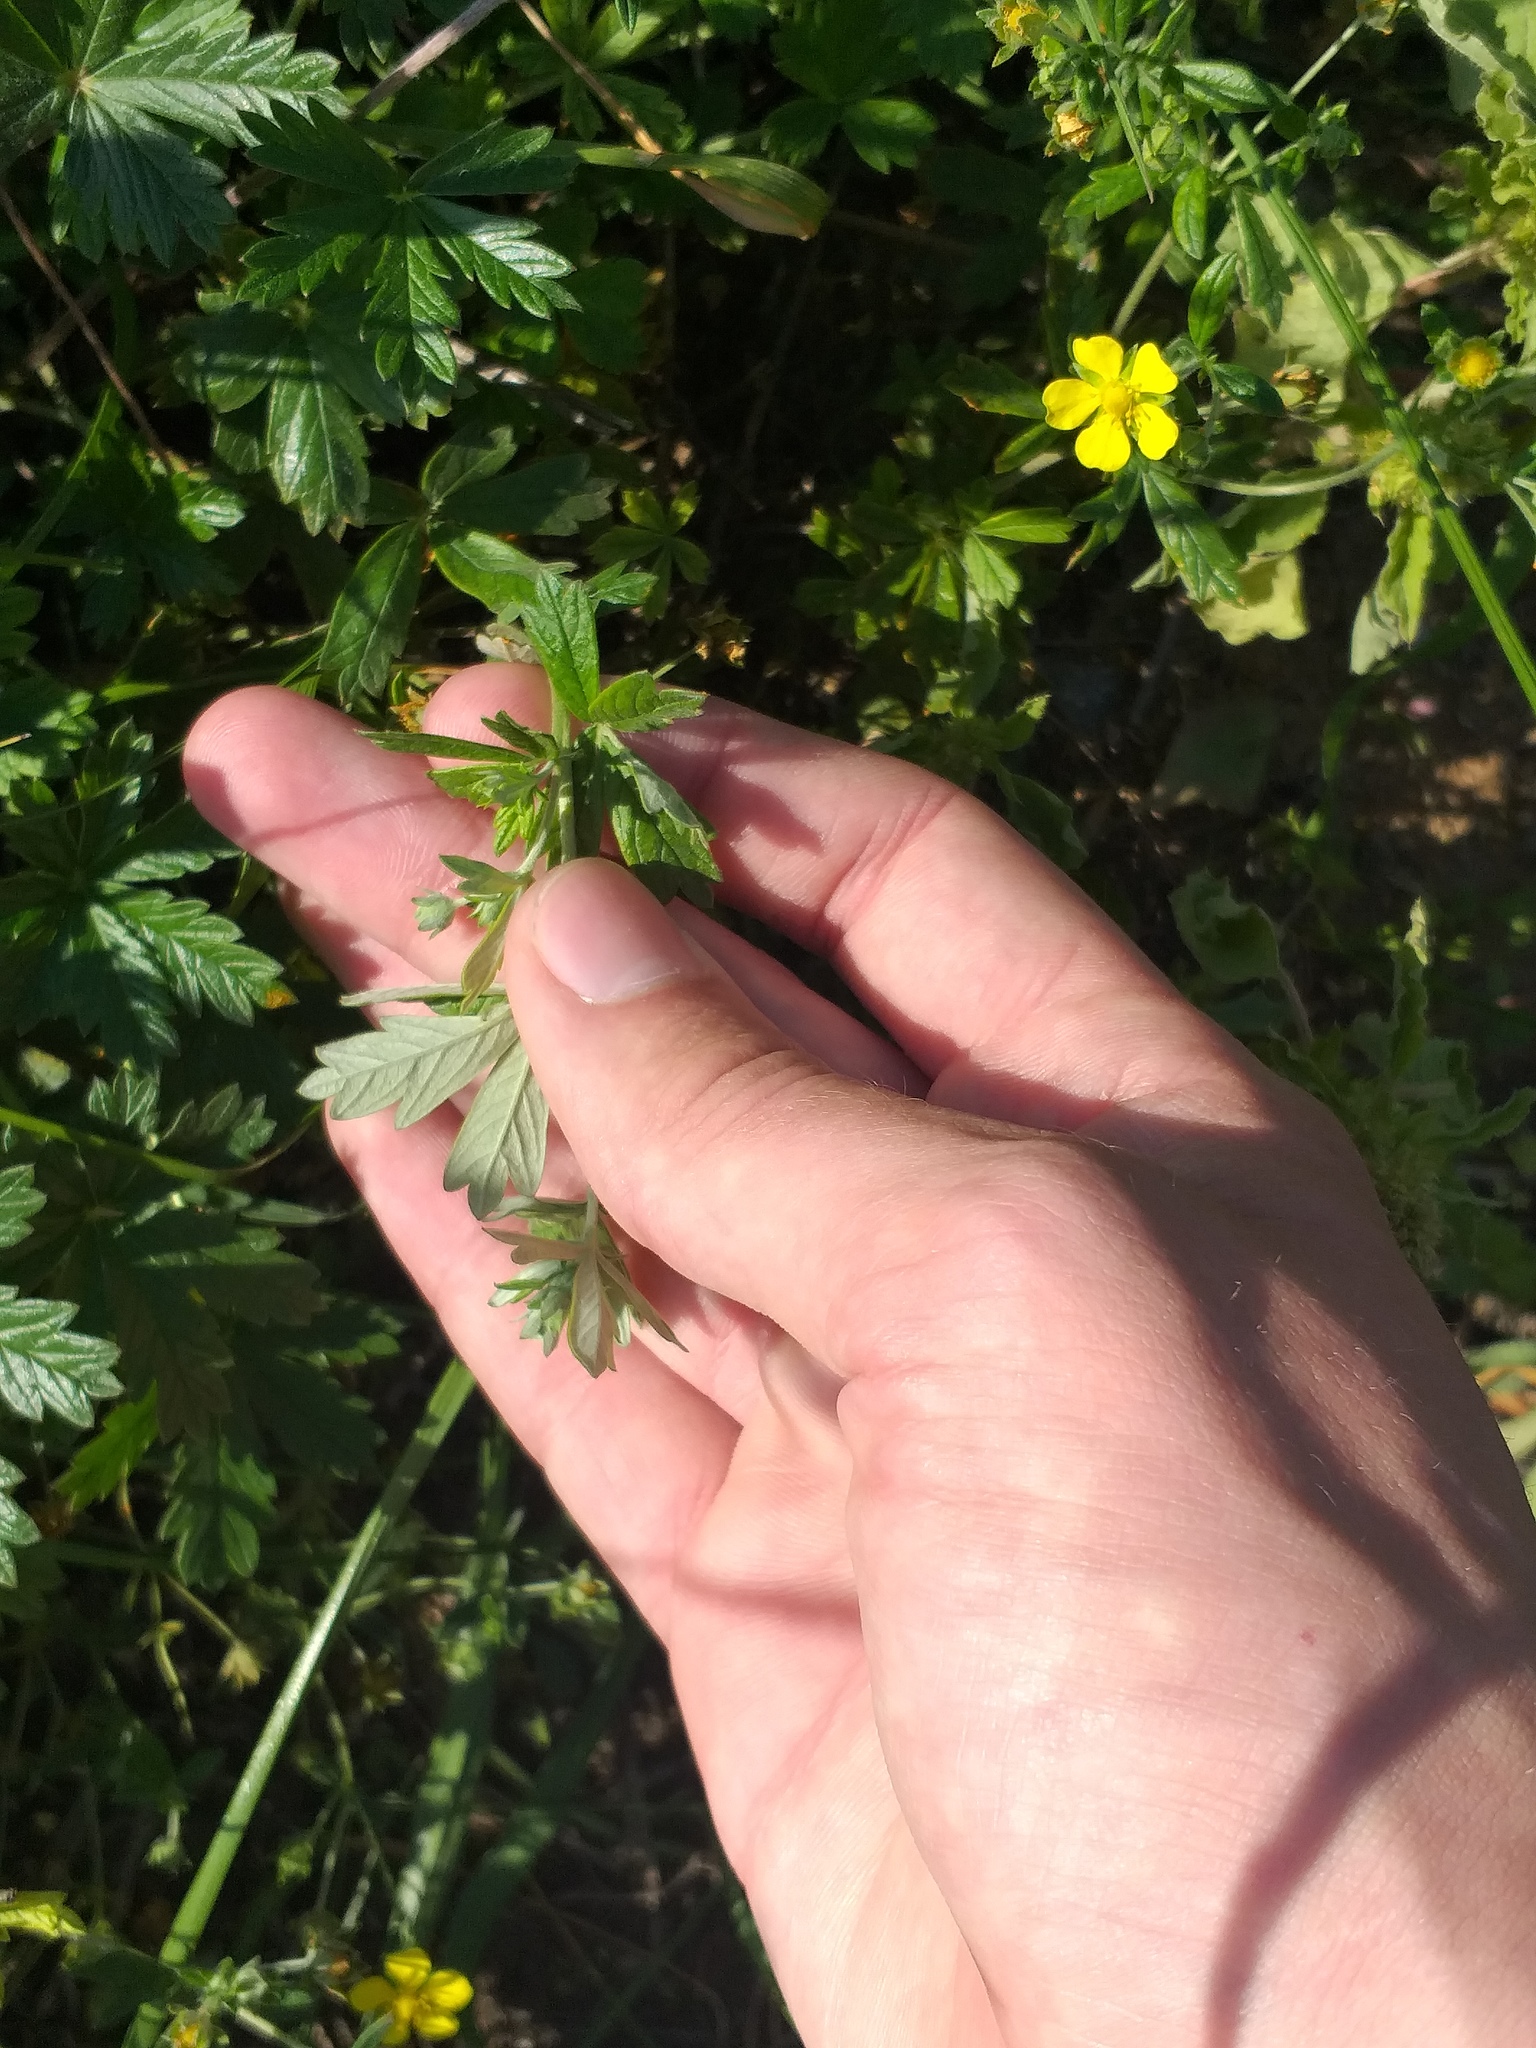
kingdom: Plantae
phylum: Tracheophyta
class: Magnoliopsida
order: Rosales
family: Rosaceae
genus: Potentilla
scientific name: Potentilla argentea
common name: Hoary cinquefoil
